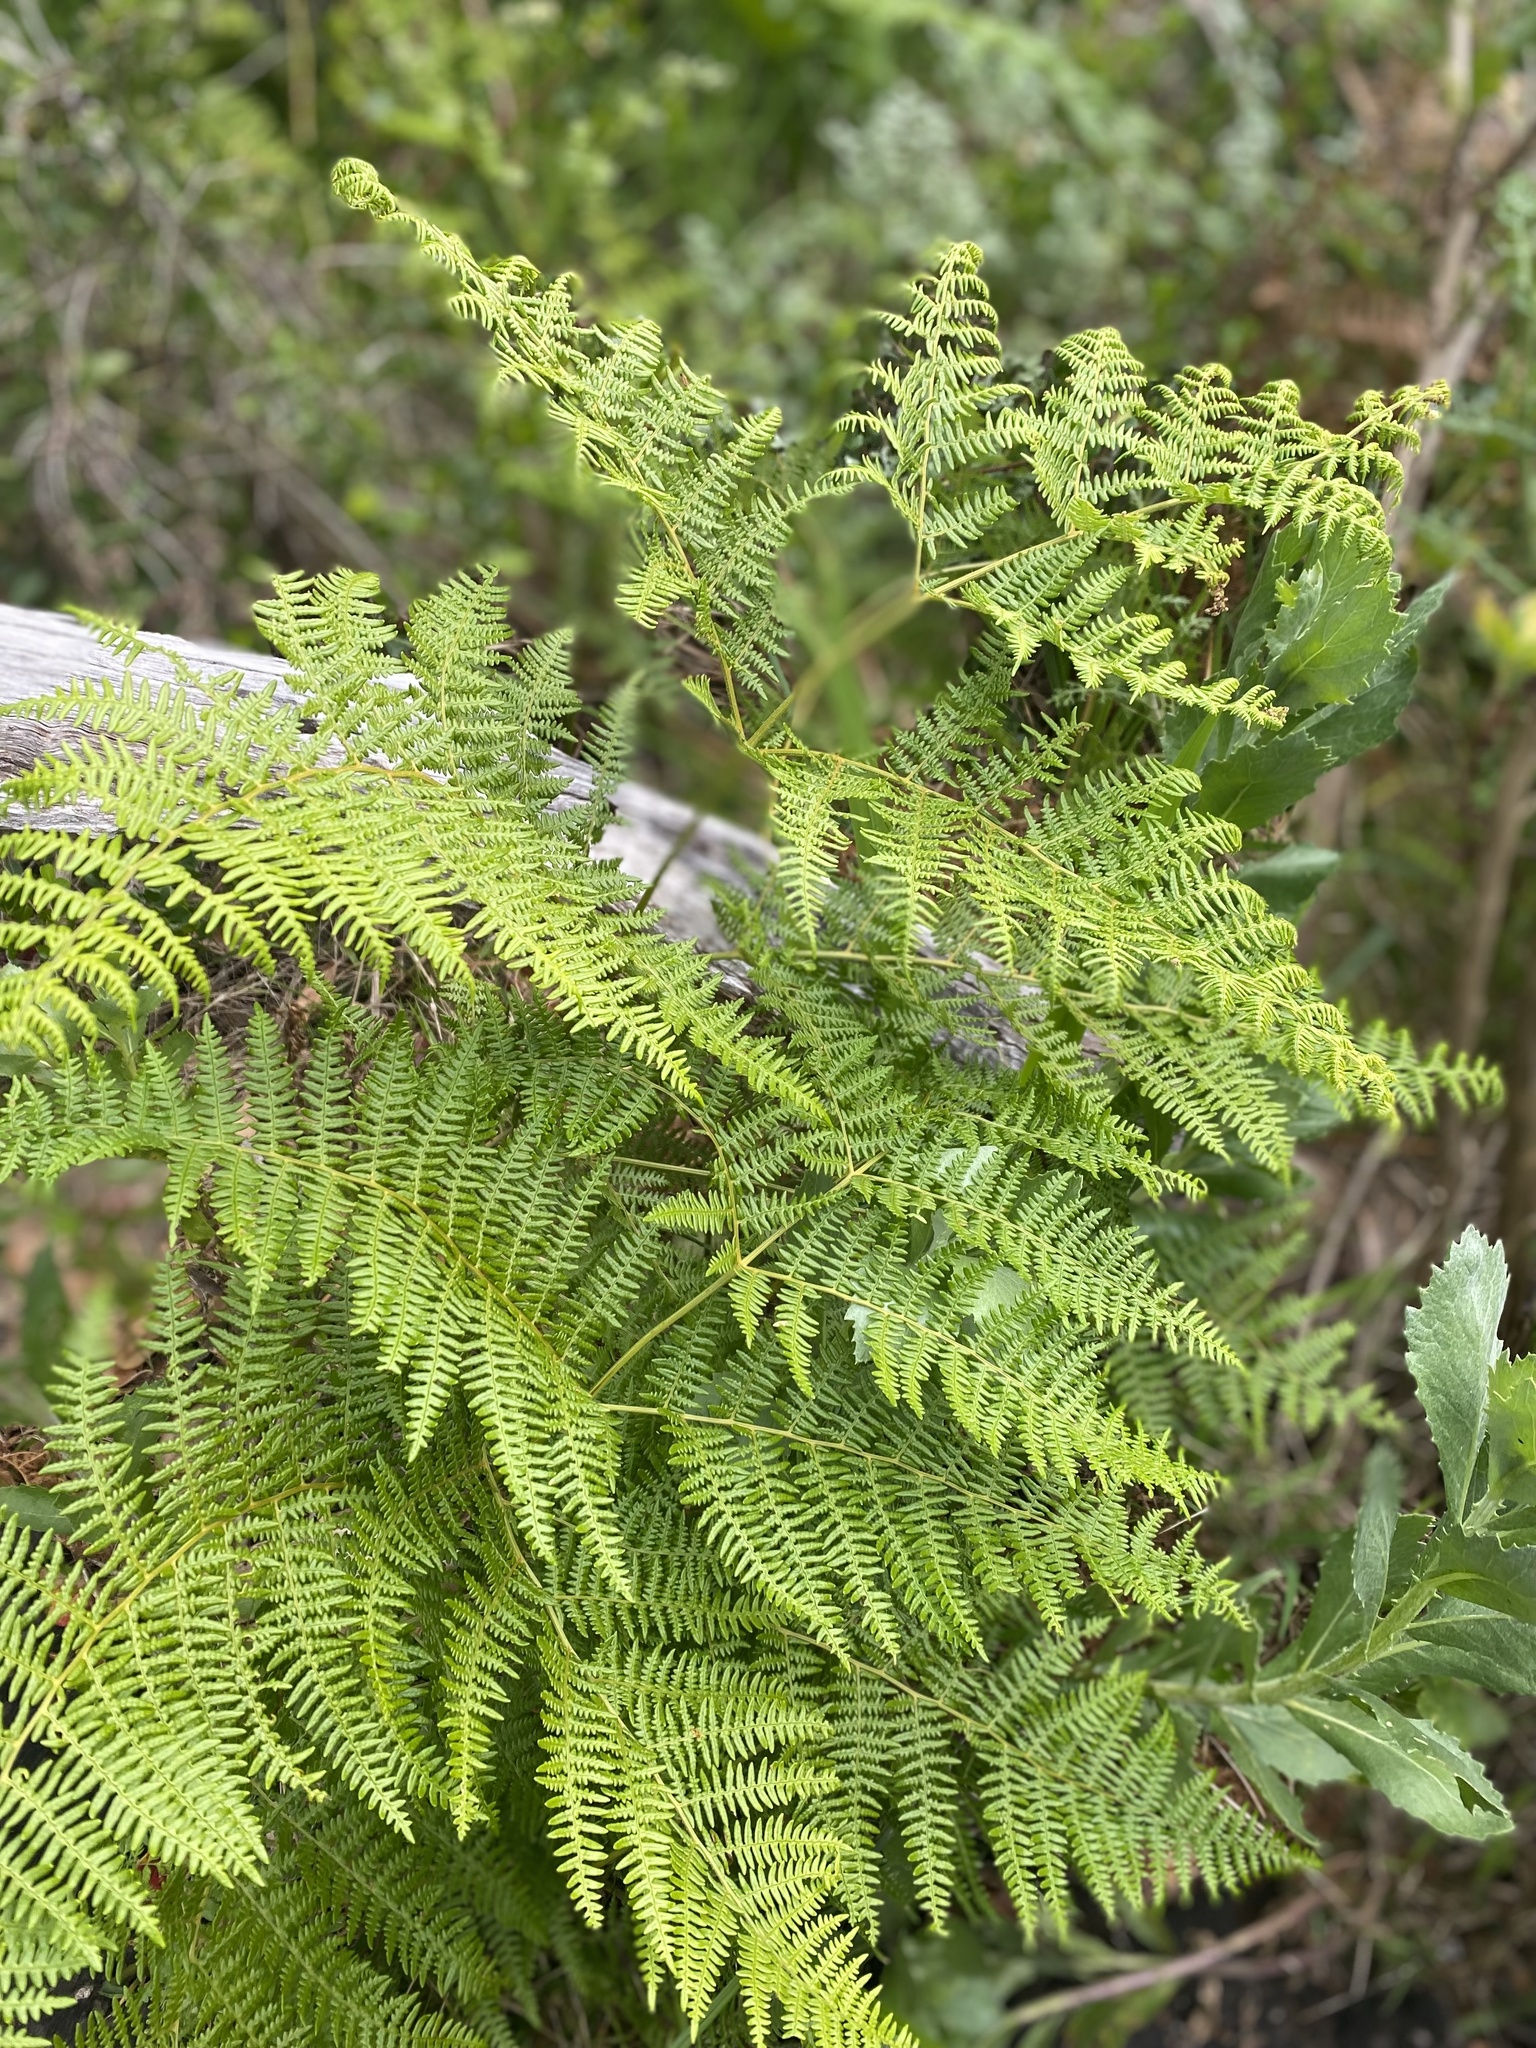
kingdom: Plantae
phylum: Tracheophyta
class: Polypodiopsida
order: Polypodiales
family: Dennstaedtiaceae
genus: Pteridium
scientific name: Pteridium aquilinum
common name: Bracken
